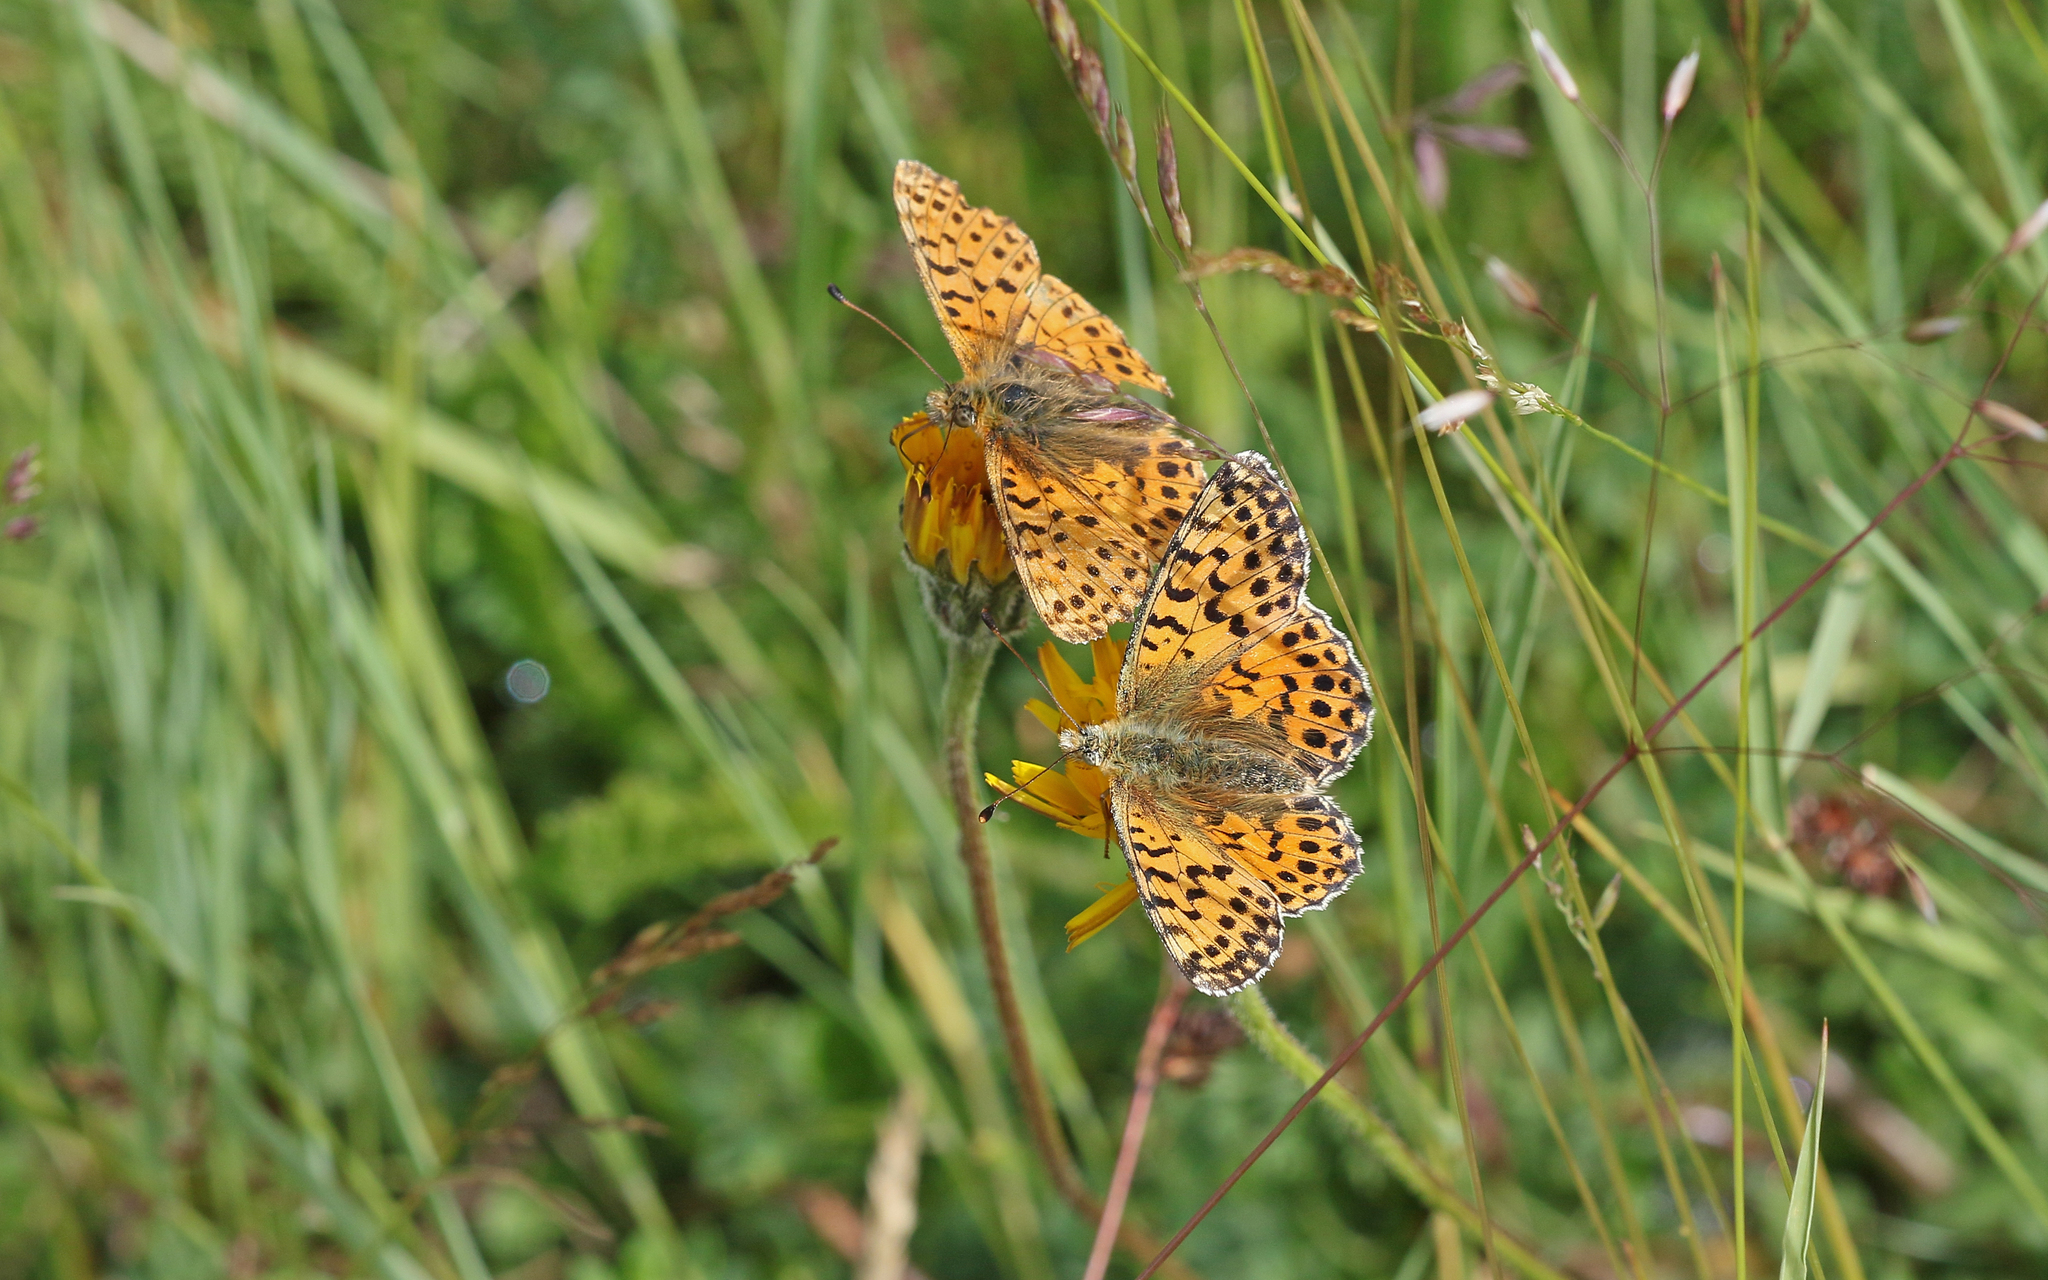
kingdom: Animalia
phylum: Arthropoda
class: Insecta
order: Lepidoptera
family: Nymphalidae
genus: Boloria
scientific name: Boloria graeca
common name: Balkan fritillary
